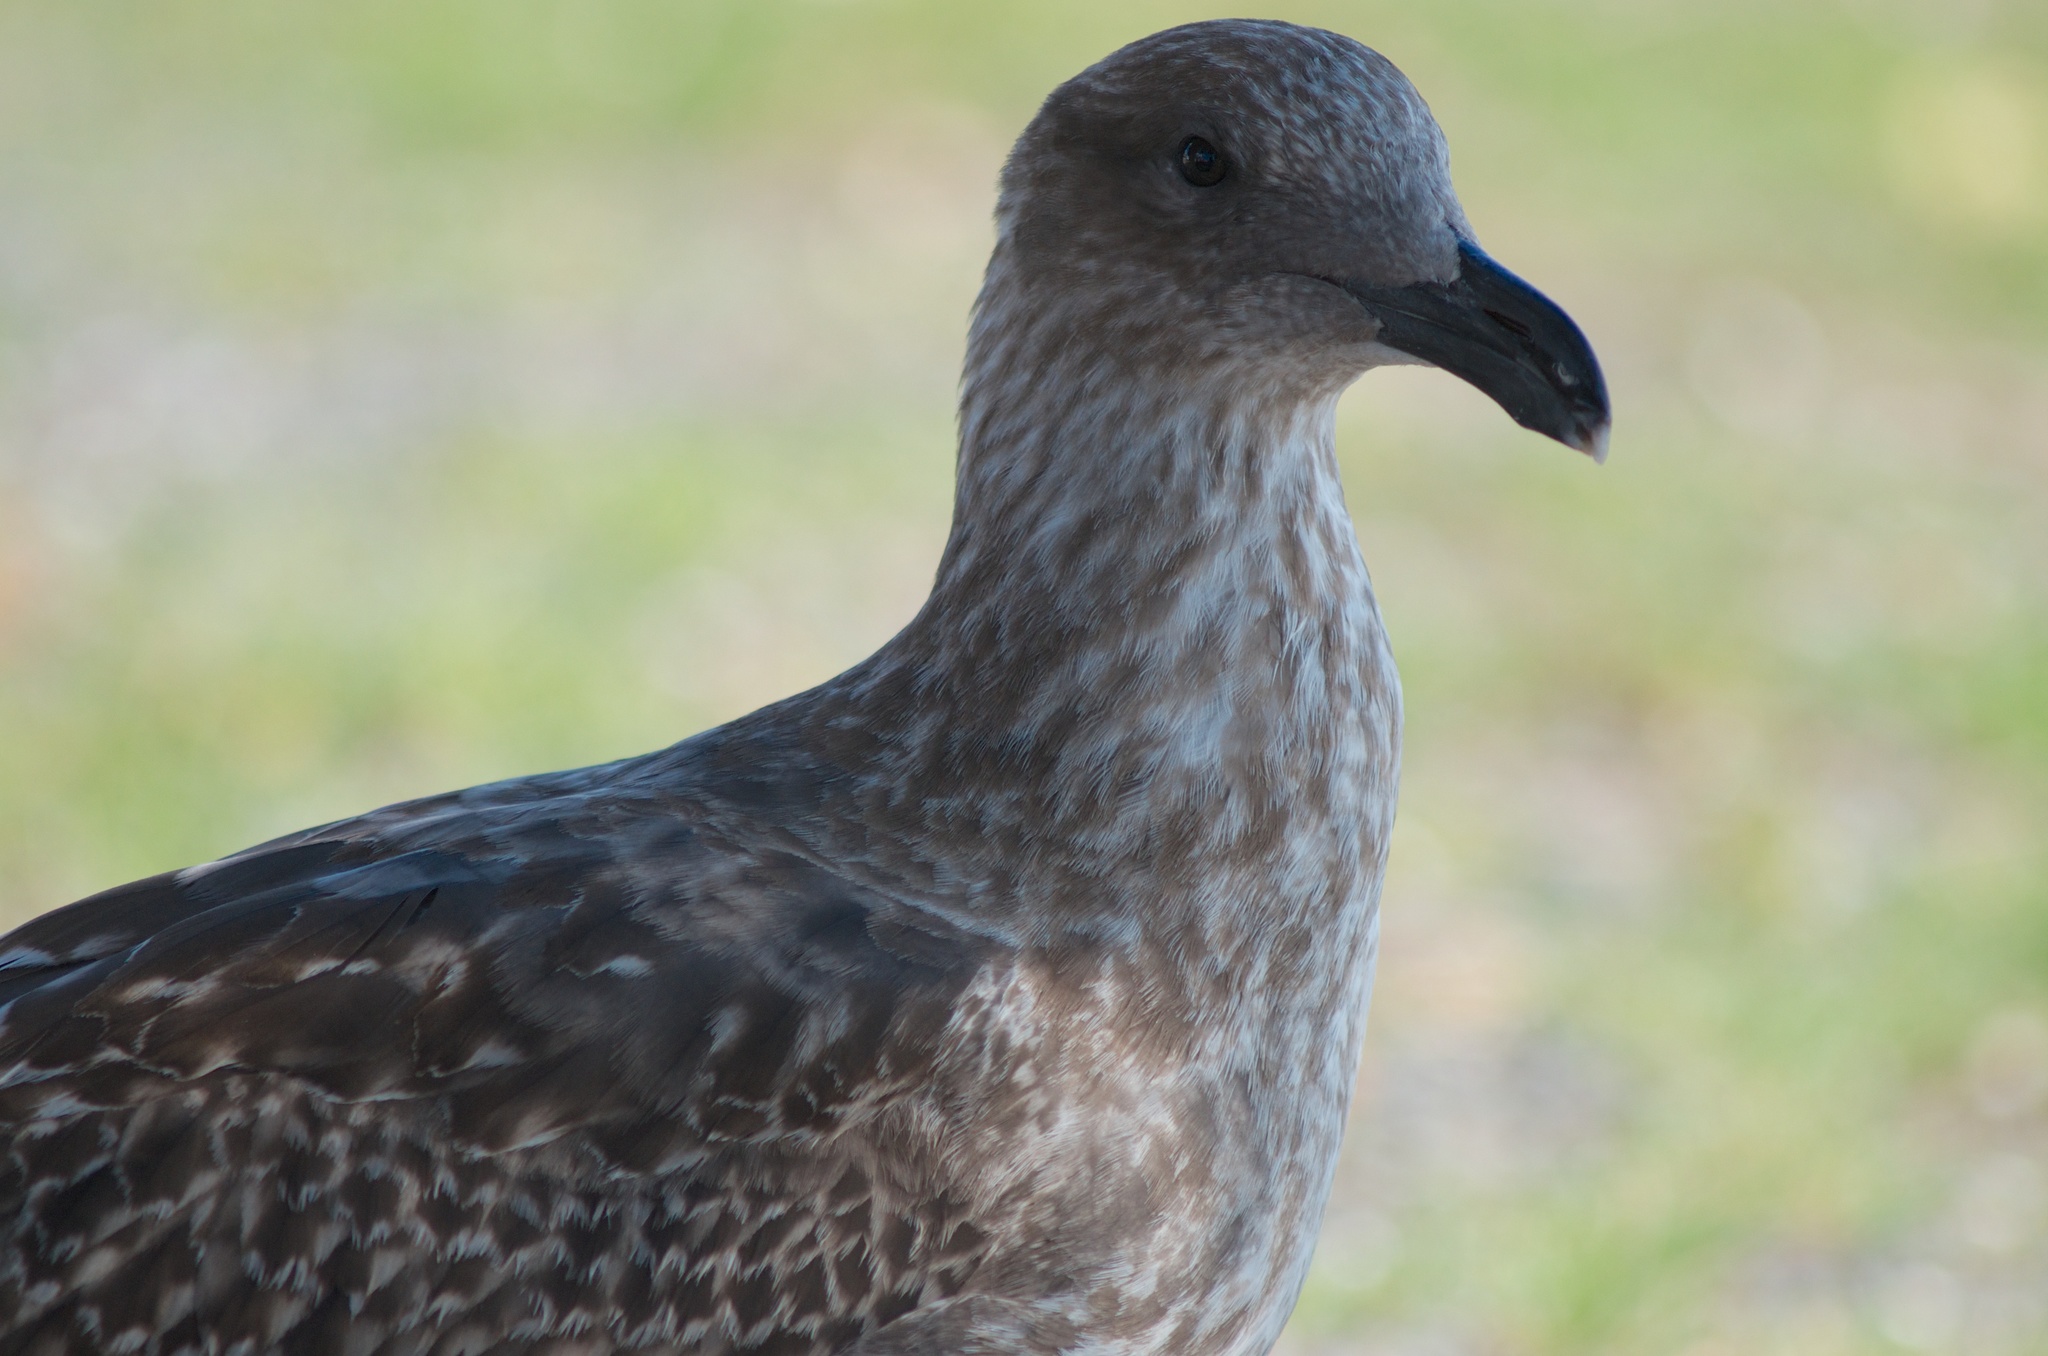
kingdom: Animalia
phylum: Chordata
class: Aves
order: Charadriiformes
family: Laridae
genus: Larus
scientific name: Larus dominicanus
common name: Kelp gull
